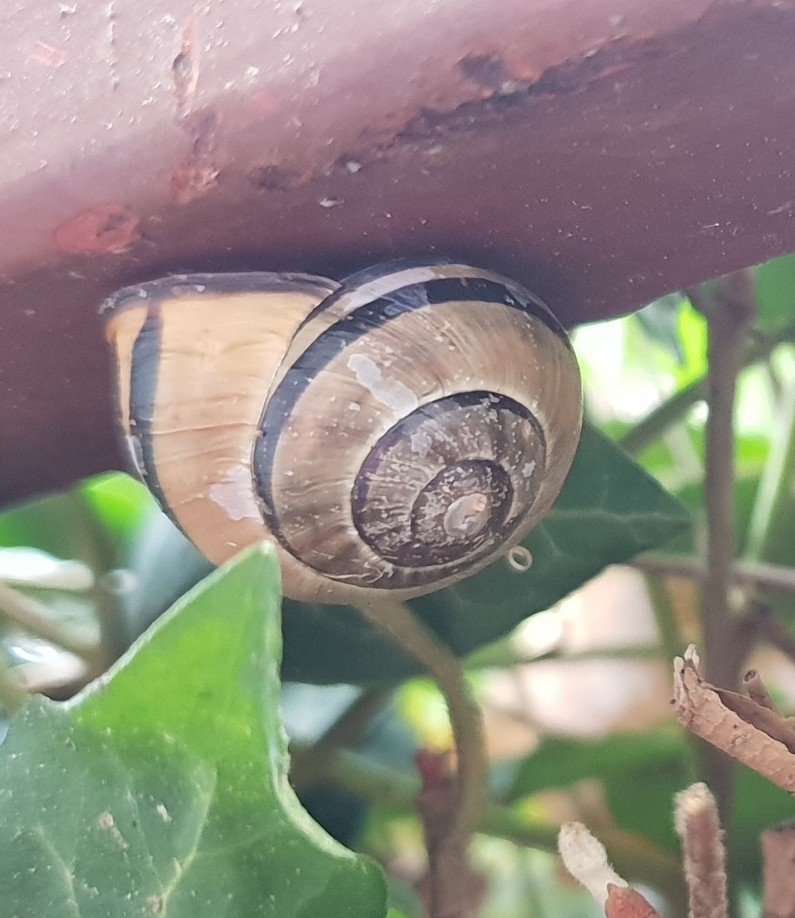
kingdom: Animalia
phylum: Mollusca
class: Gastropoda
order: Stylommatophora
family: Helicidae
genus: Cepaea
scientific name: Cepaea nemoralis
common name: Grovesnail
